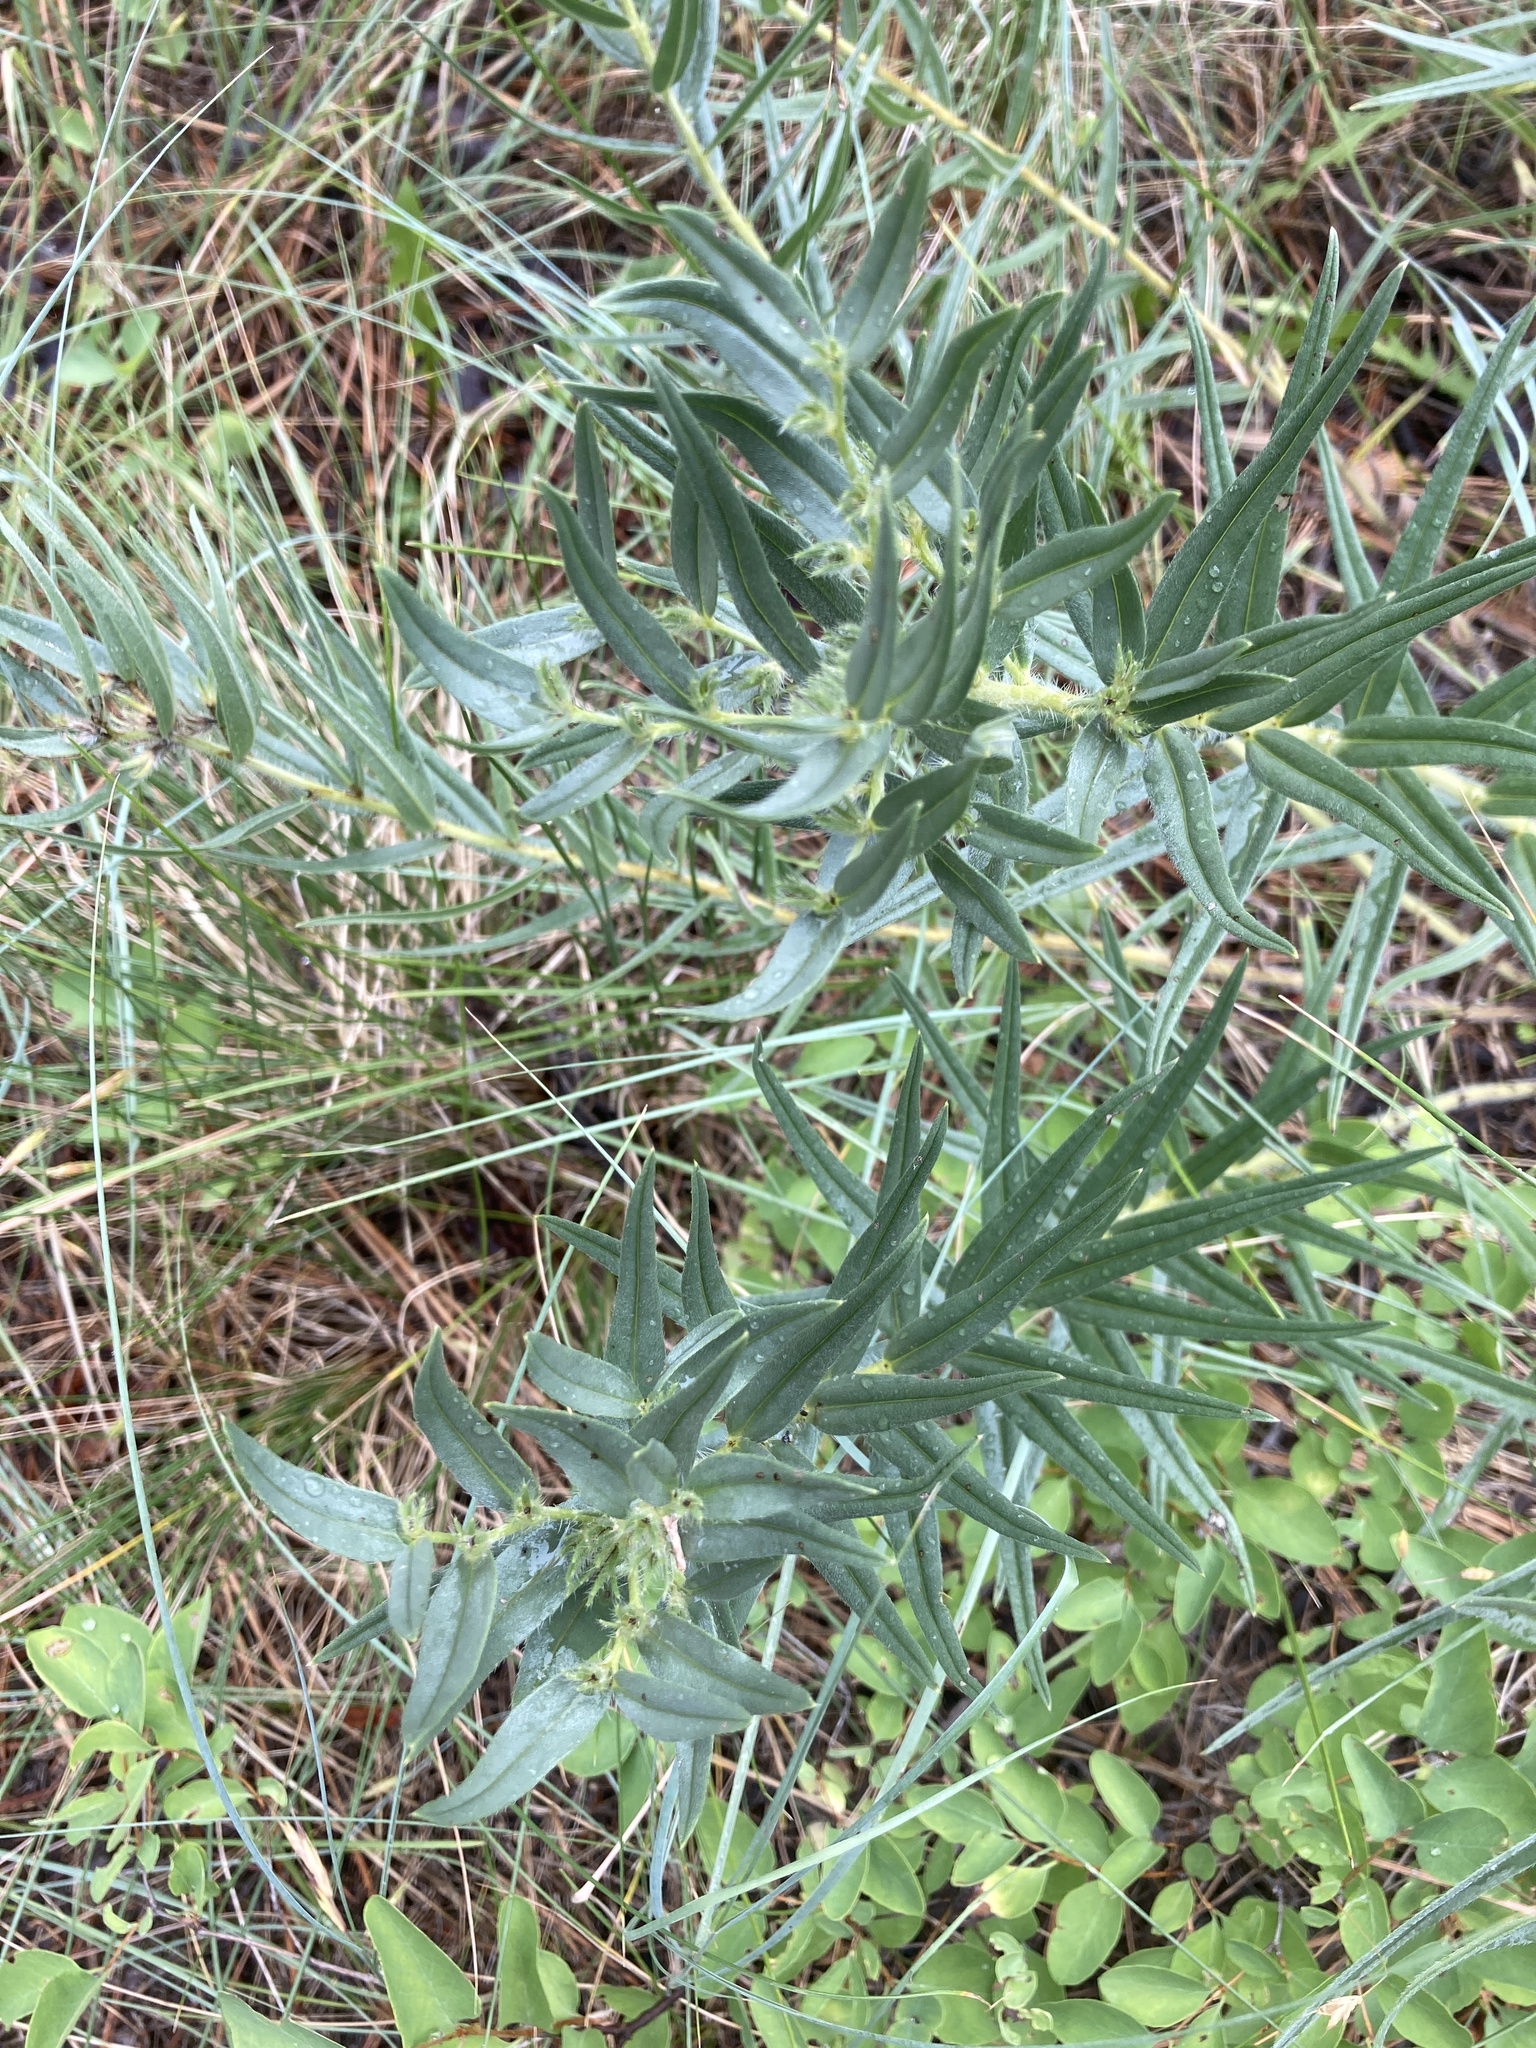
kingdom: Plantae
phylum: Tracheophyta
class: Magnoliopsida
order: Boraginales
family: Boraginaceae
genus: Lithospermum
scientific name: Lithospermum ruderale
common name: Western gromwell
